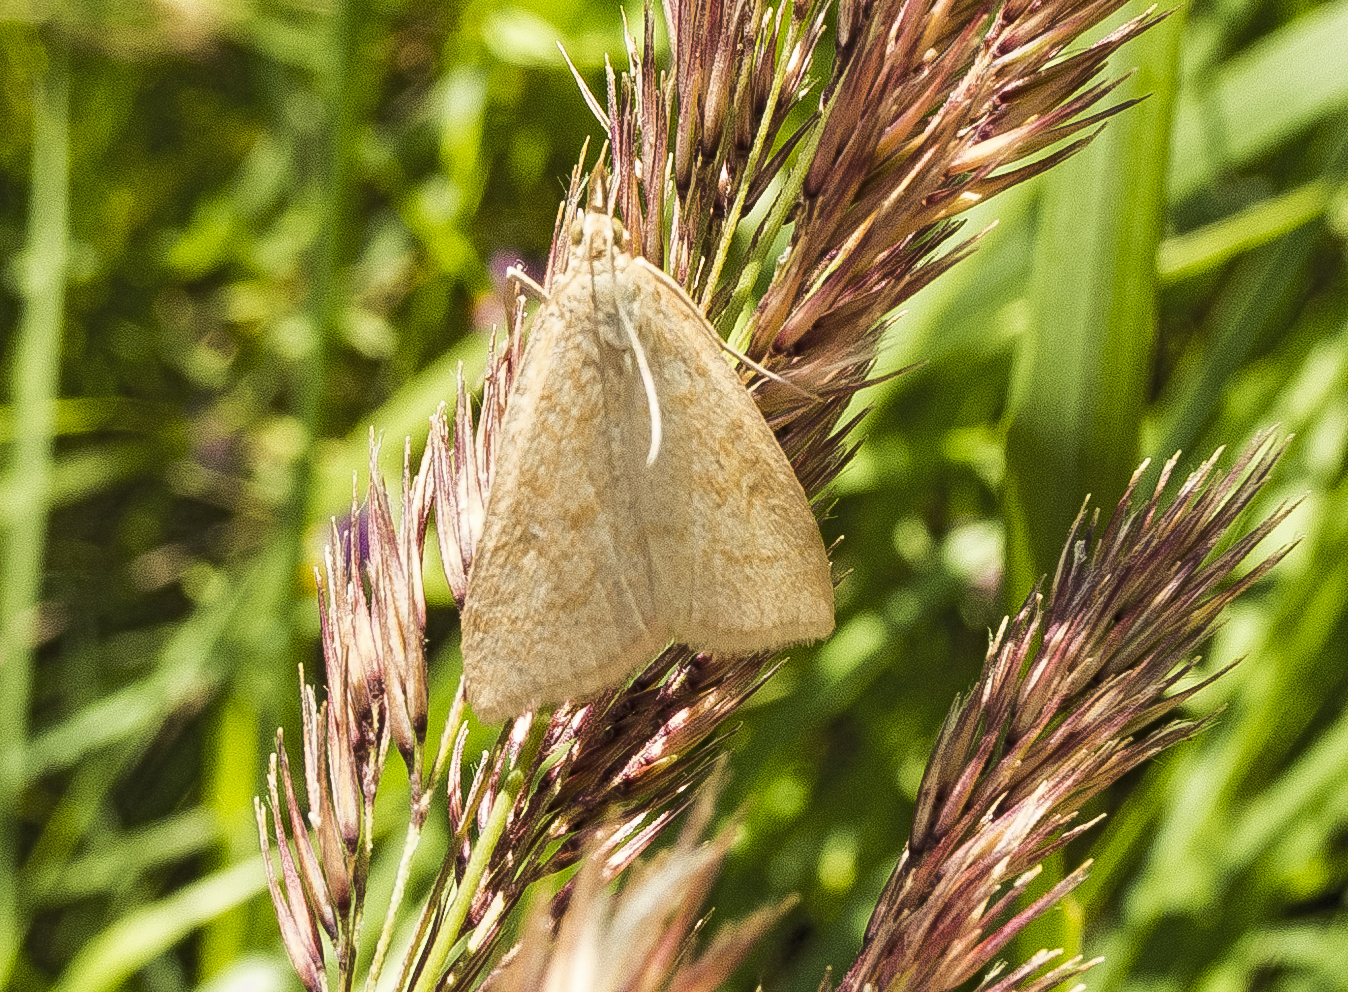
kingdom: Animalia
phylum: Arthropoda
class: Insecta
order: Lepidoptera
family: Crambidae
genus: Udea
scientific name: Udea lutealis
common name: Pale straw pearl
